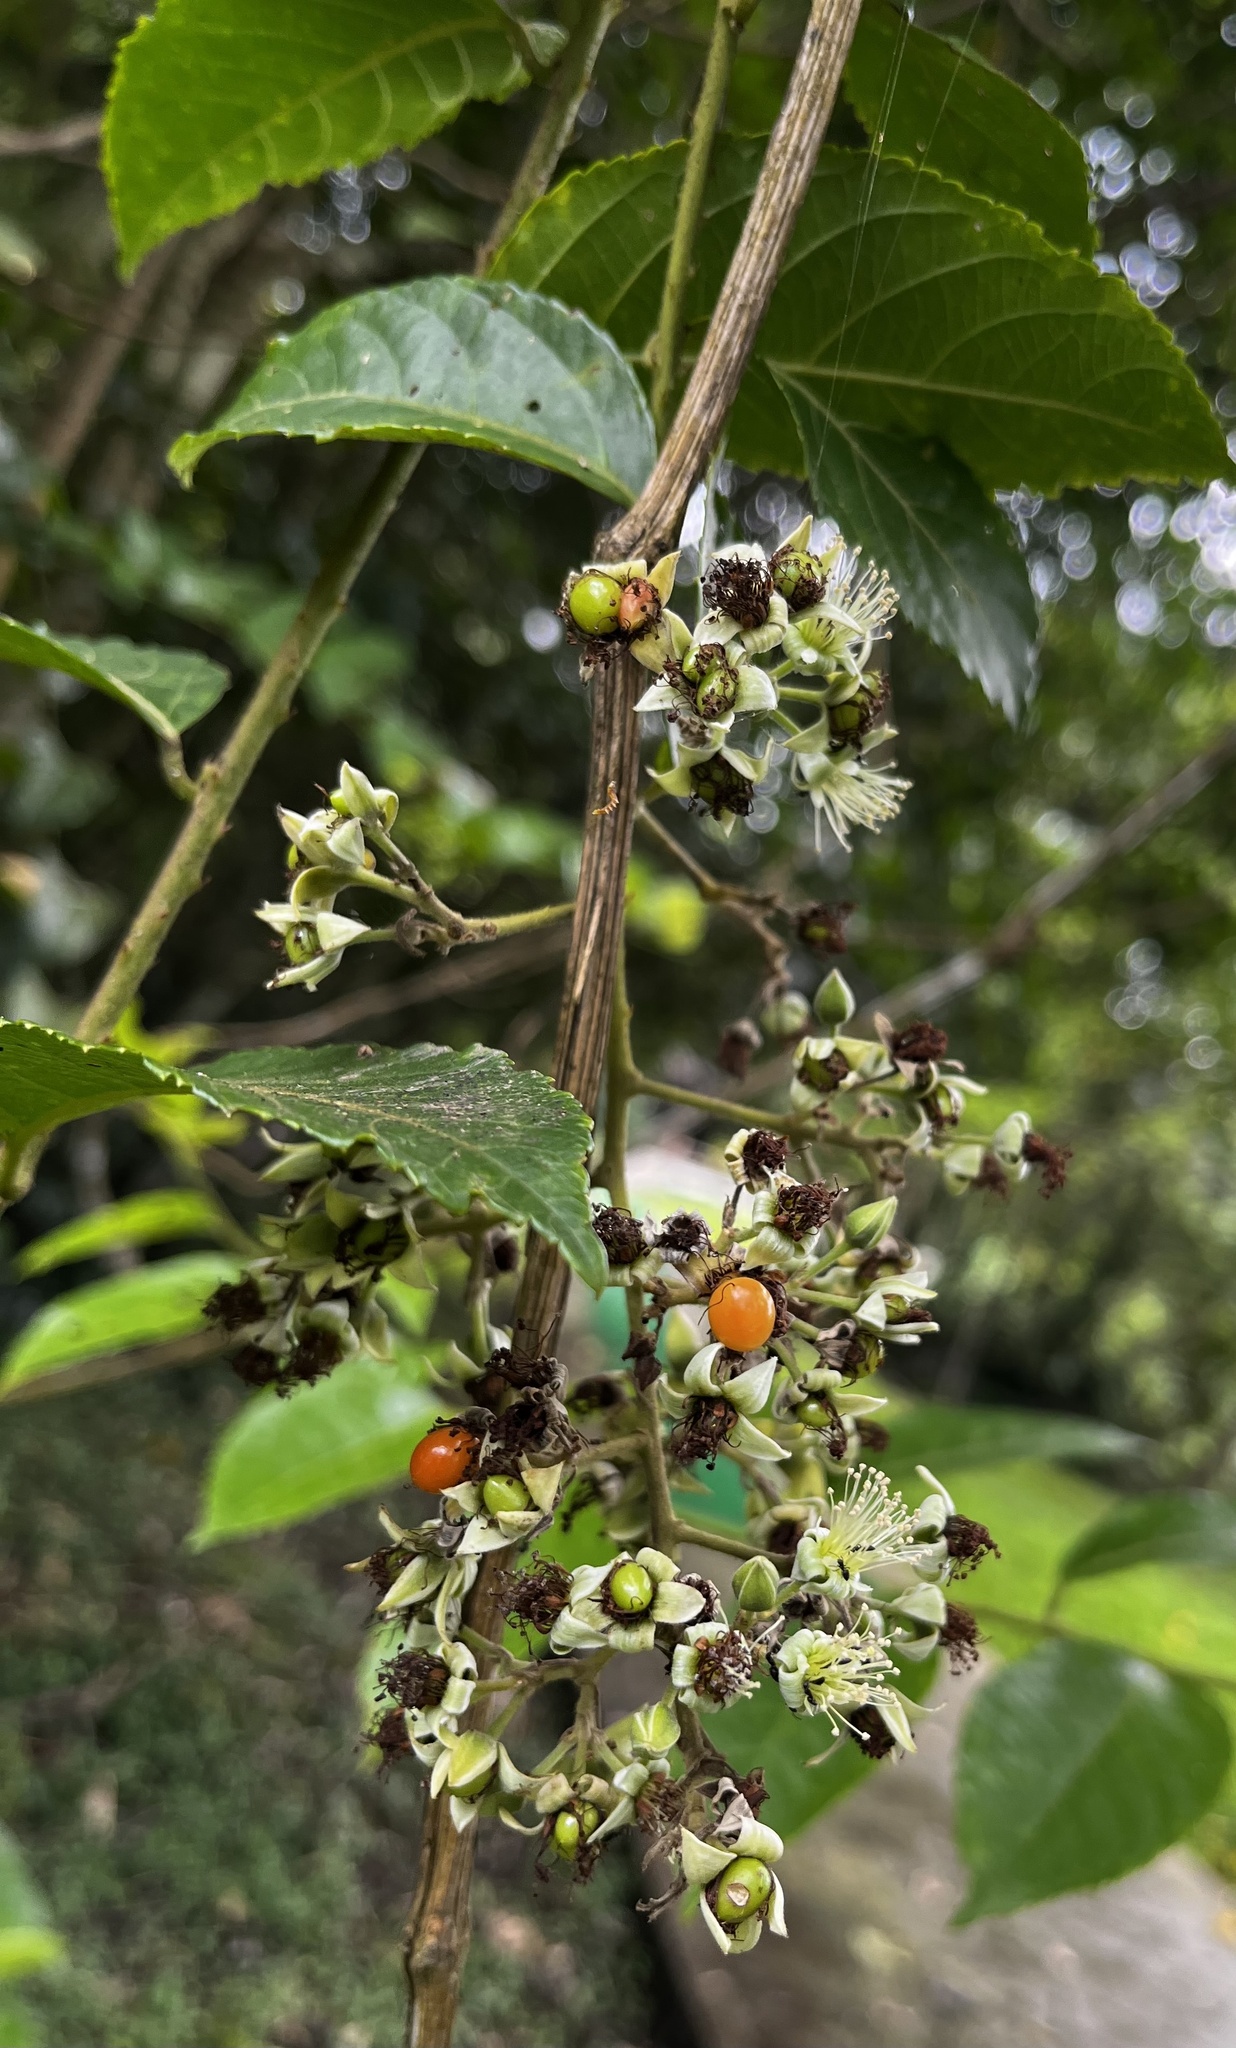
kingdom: Plantae
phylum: Tracheophyta
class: Magnoliopsida
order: Rosales
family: Rosaceae
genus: Rubus
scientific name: Rubus
